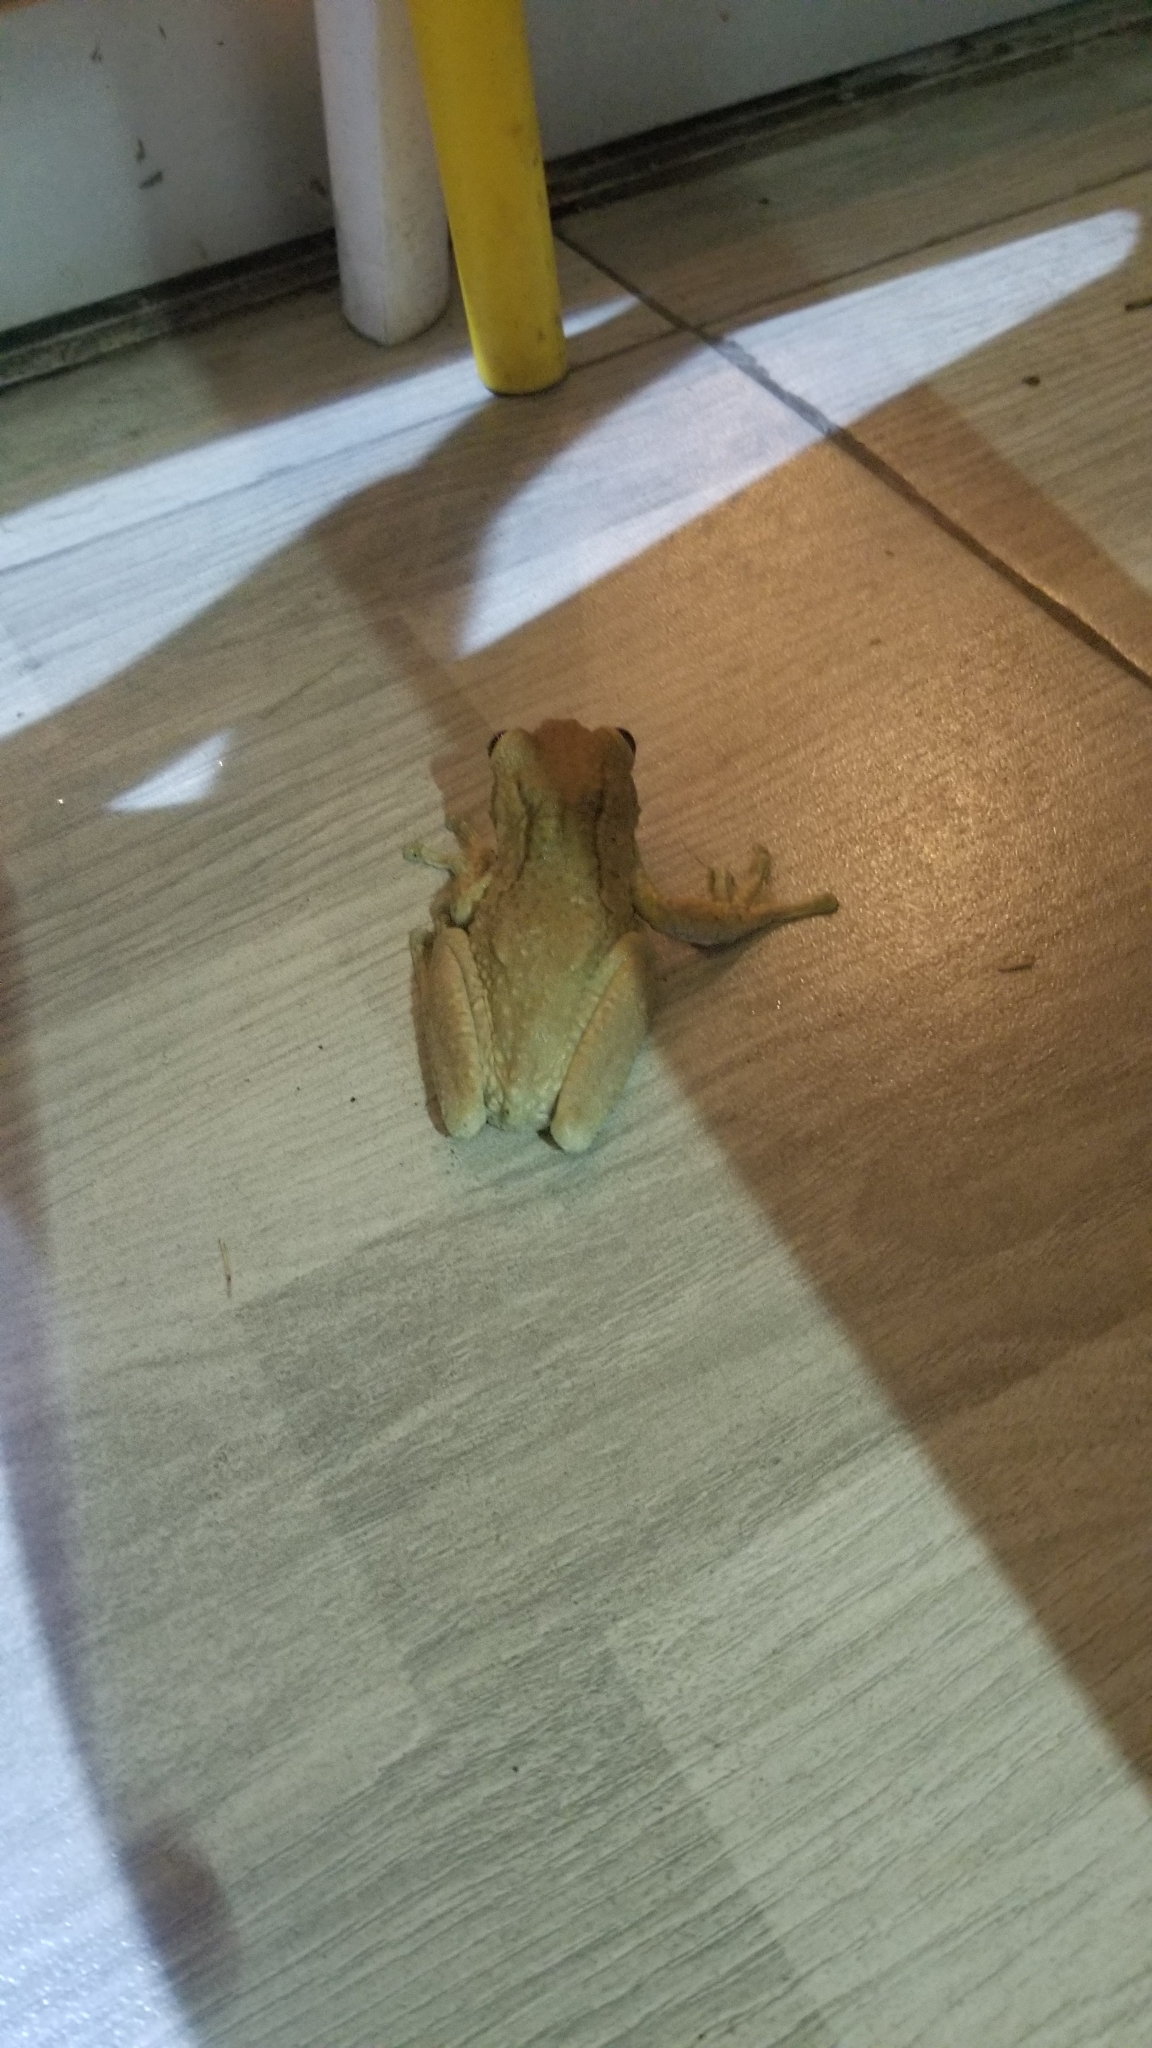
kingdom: Animalia
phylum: Chordata
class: Amphibia
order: Anura
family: Hylidae
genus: Trachycephalus
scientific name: Trachycephalus vermiculatus
